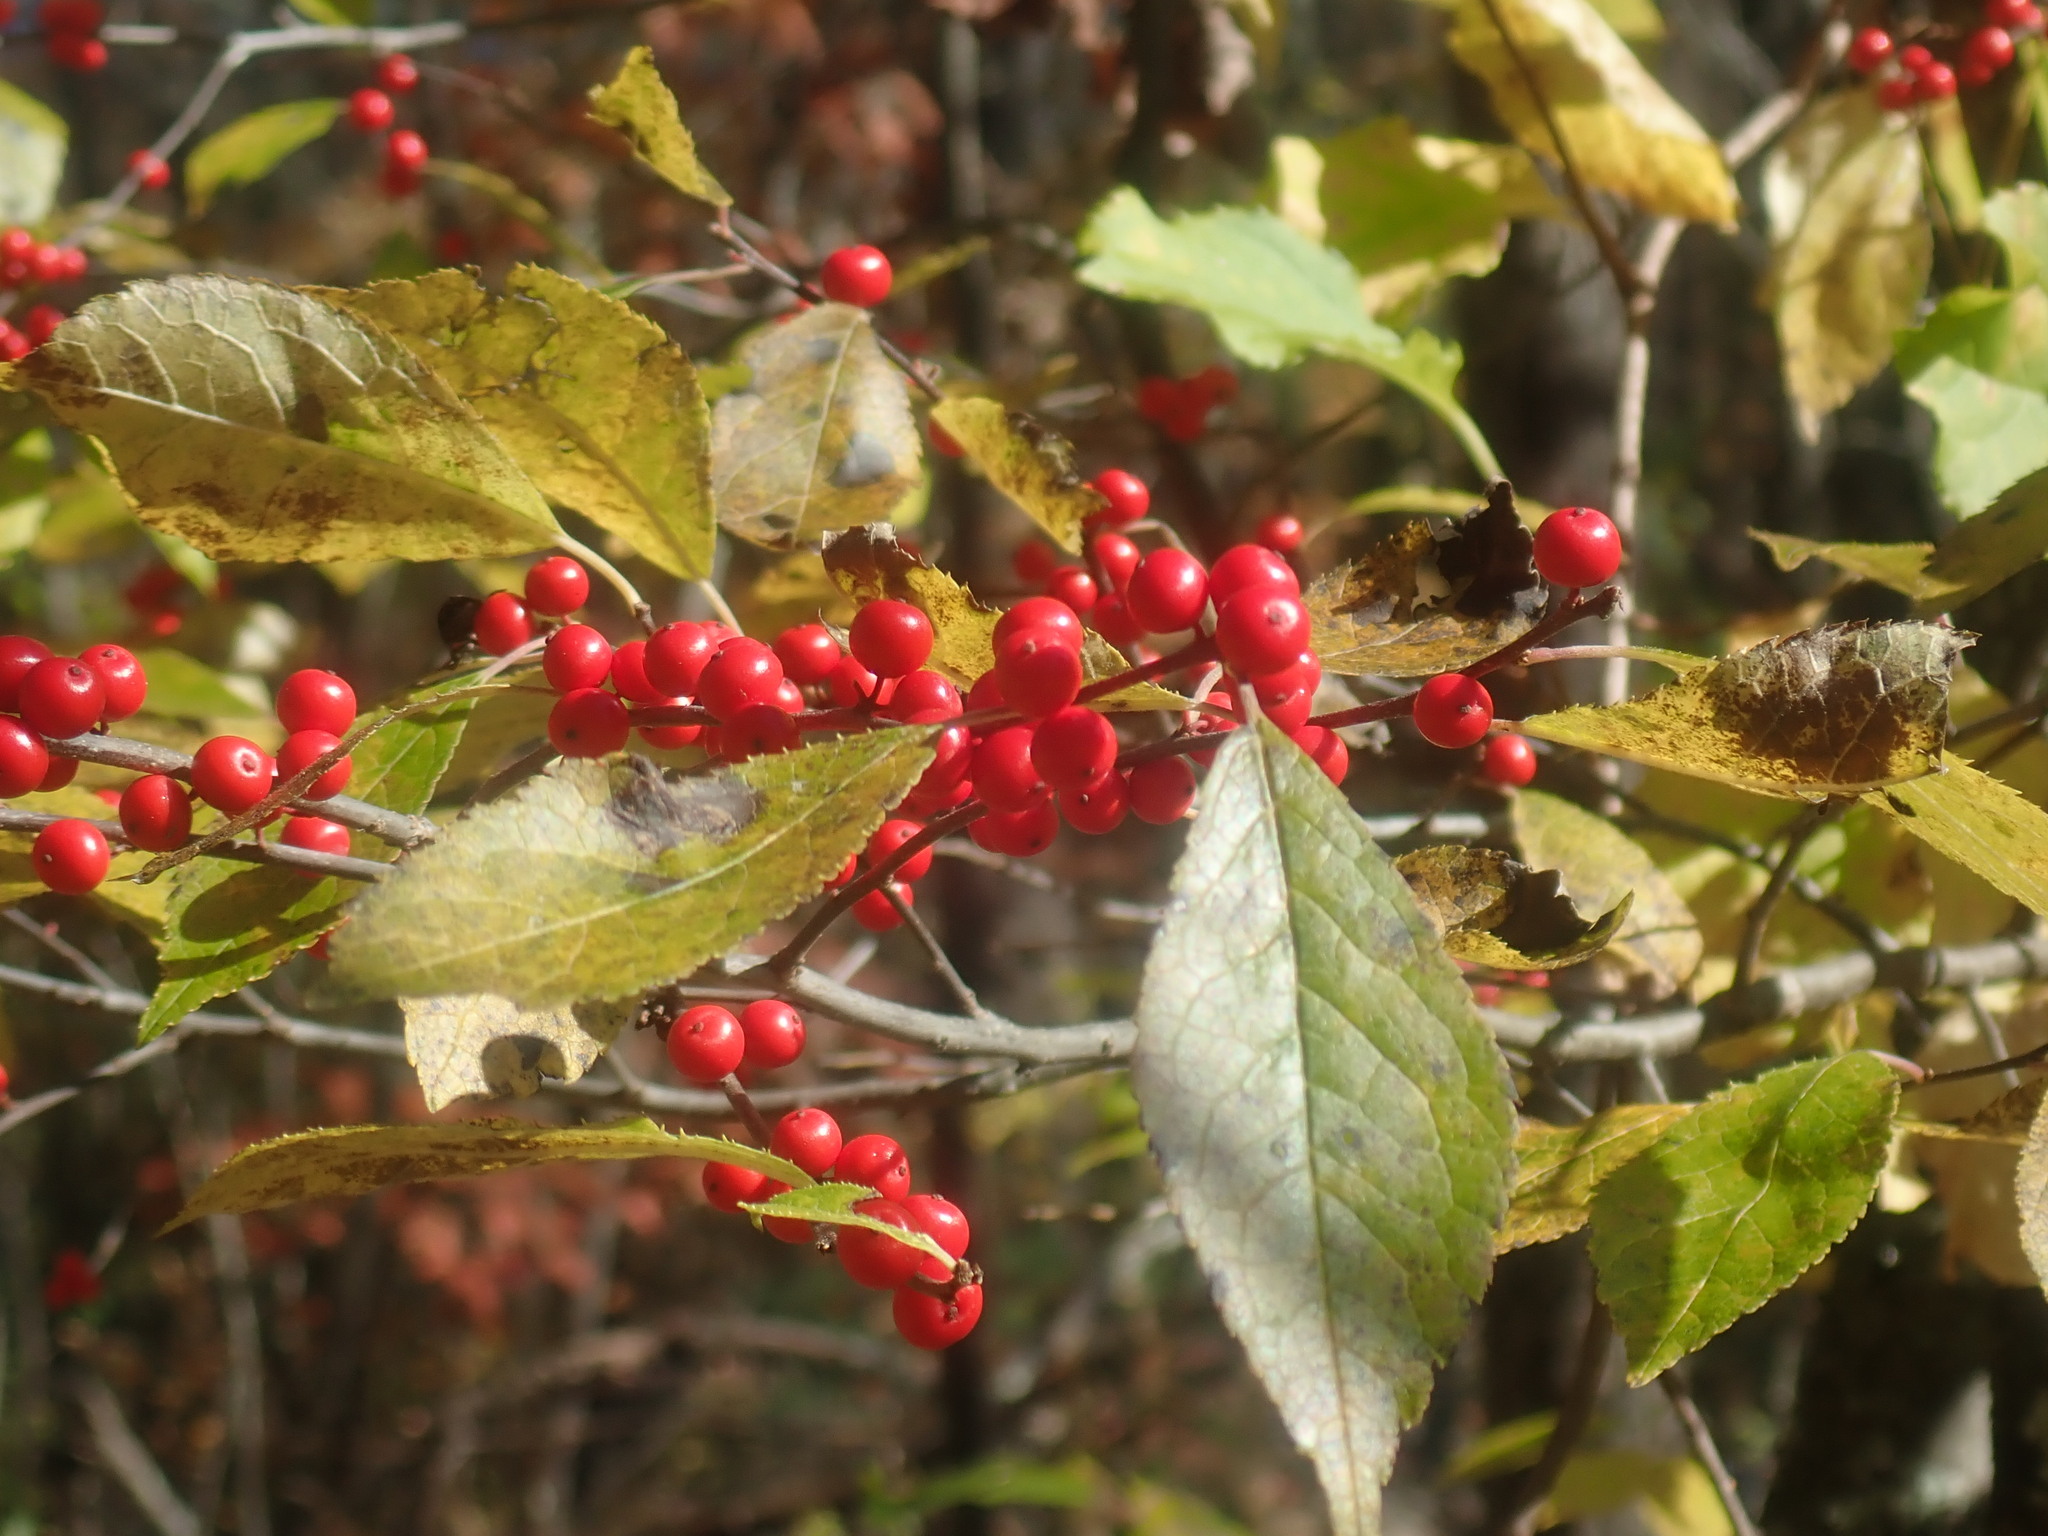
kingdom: Plantae
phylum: Tracheophyta
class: Magnoliopsida
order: Aquifoliales
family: Aquifoliaceae
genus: Ilex
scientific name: Ilex verticillata
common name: Virginia winterberry
